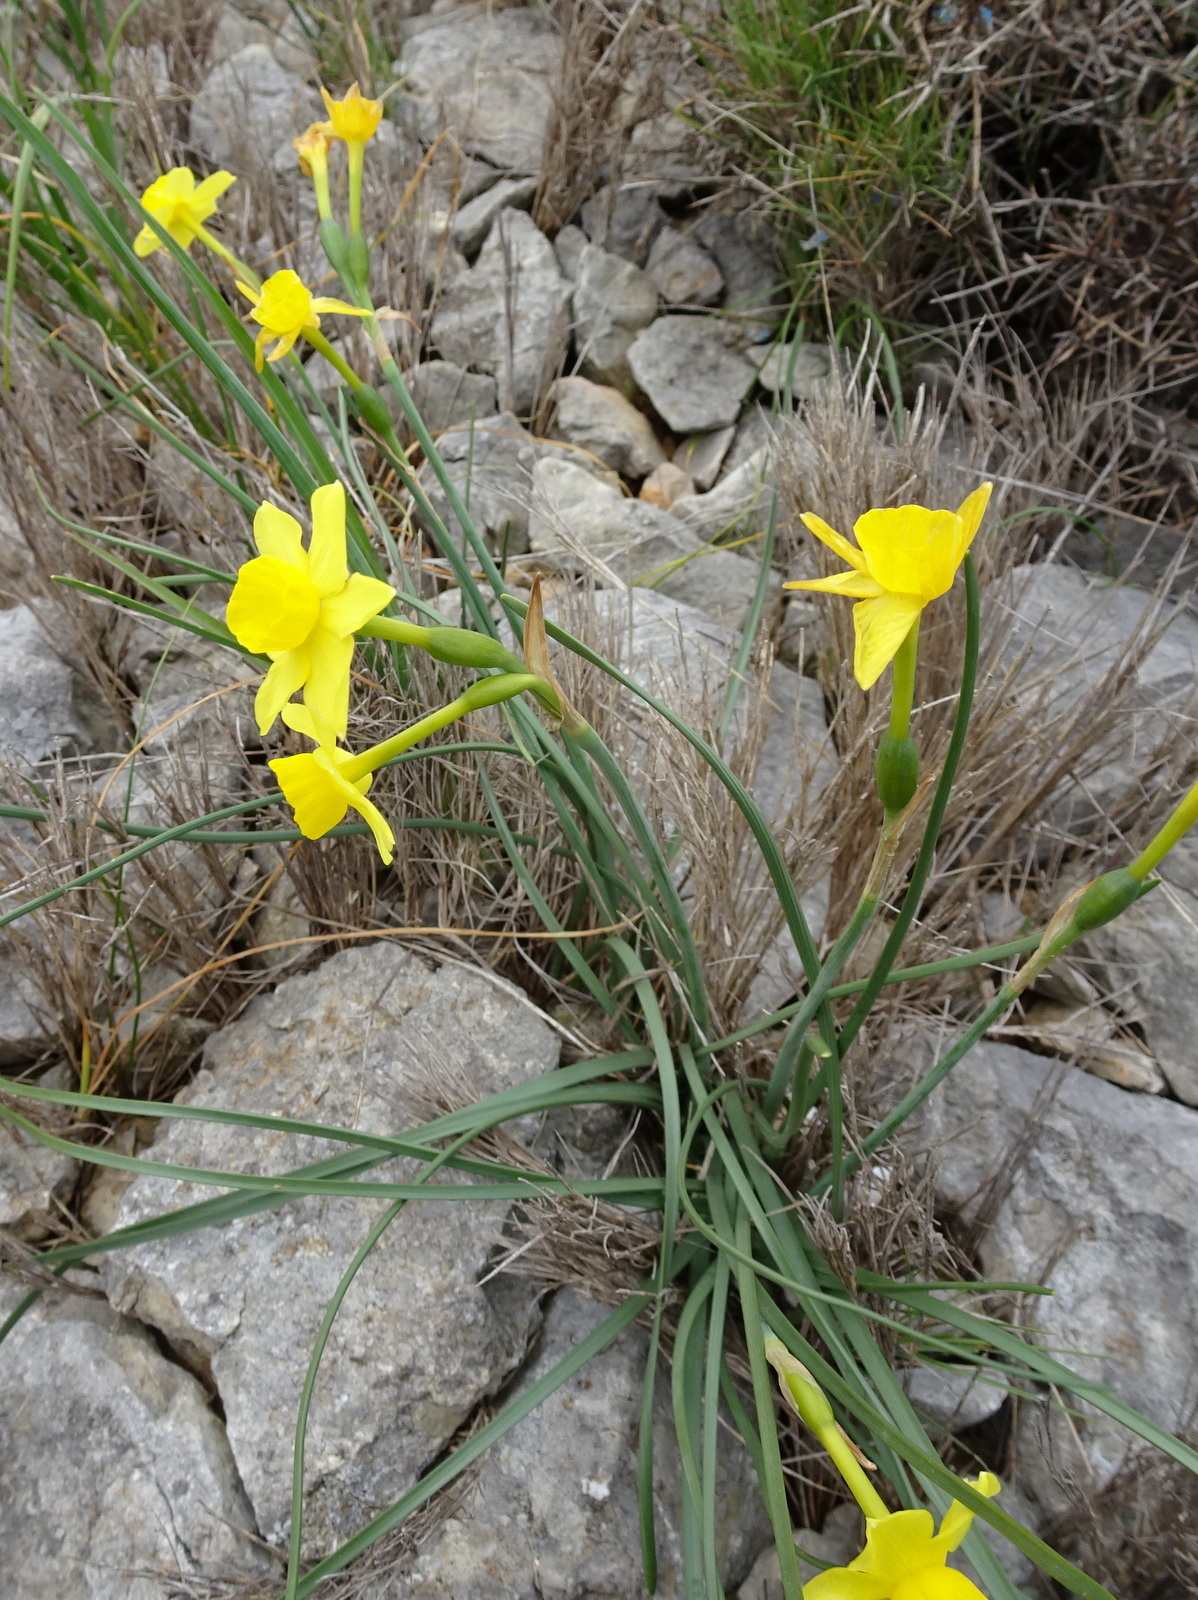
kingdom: Plantae
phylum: Tracheophyta
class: Liliopsida
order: Asparagales
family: Amaryllidaceae
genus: Narcissus
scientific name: Narcissus assoanus
